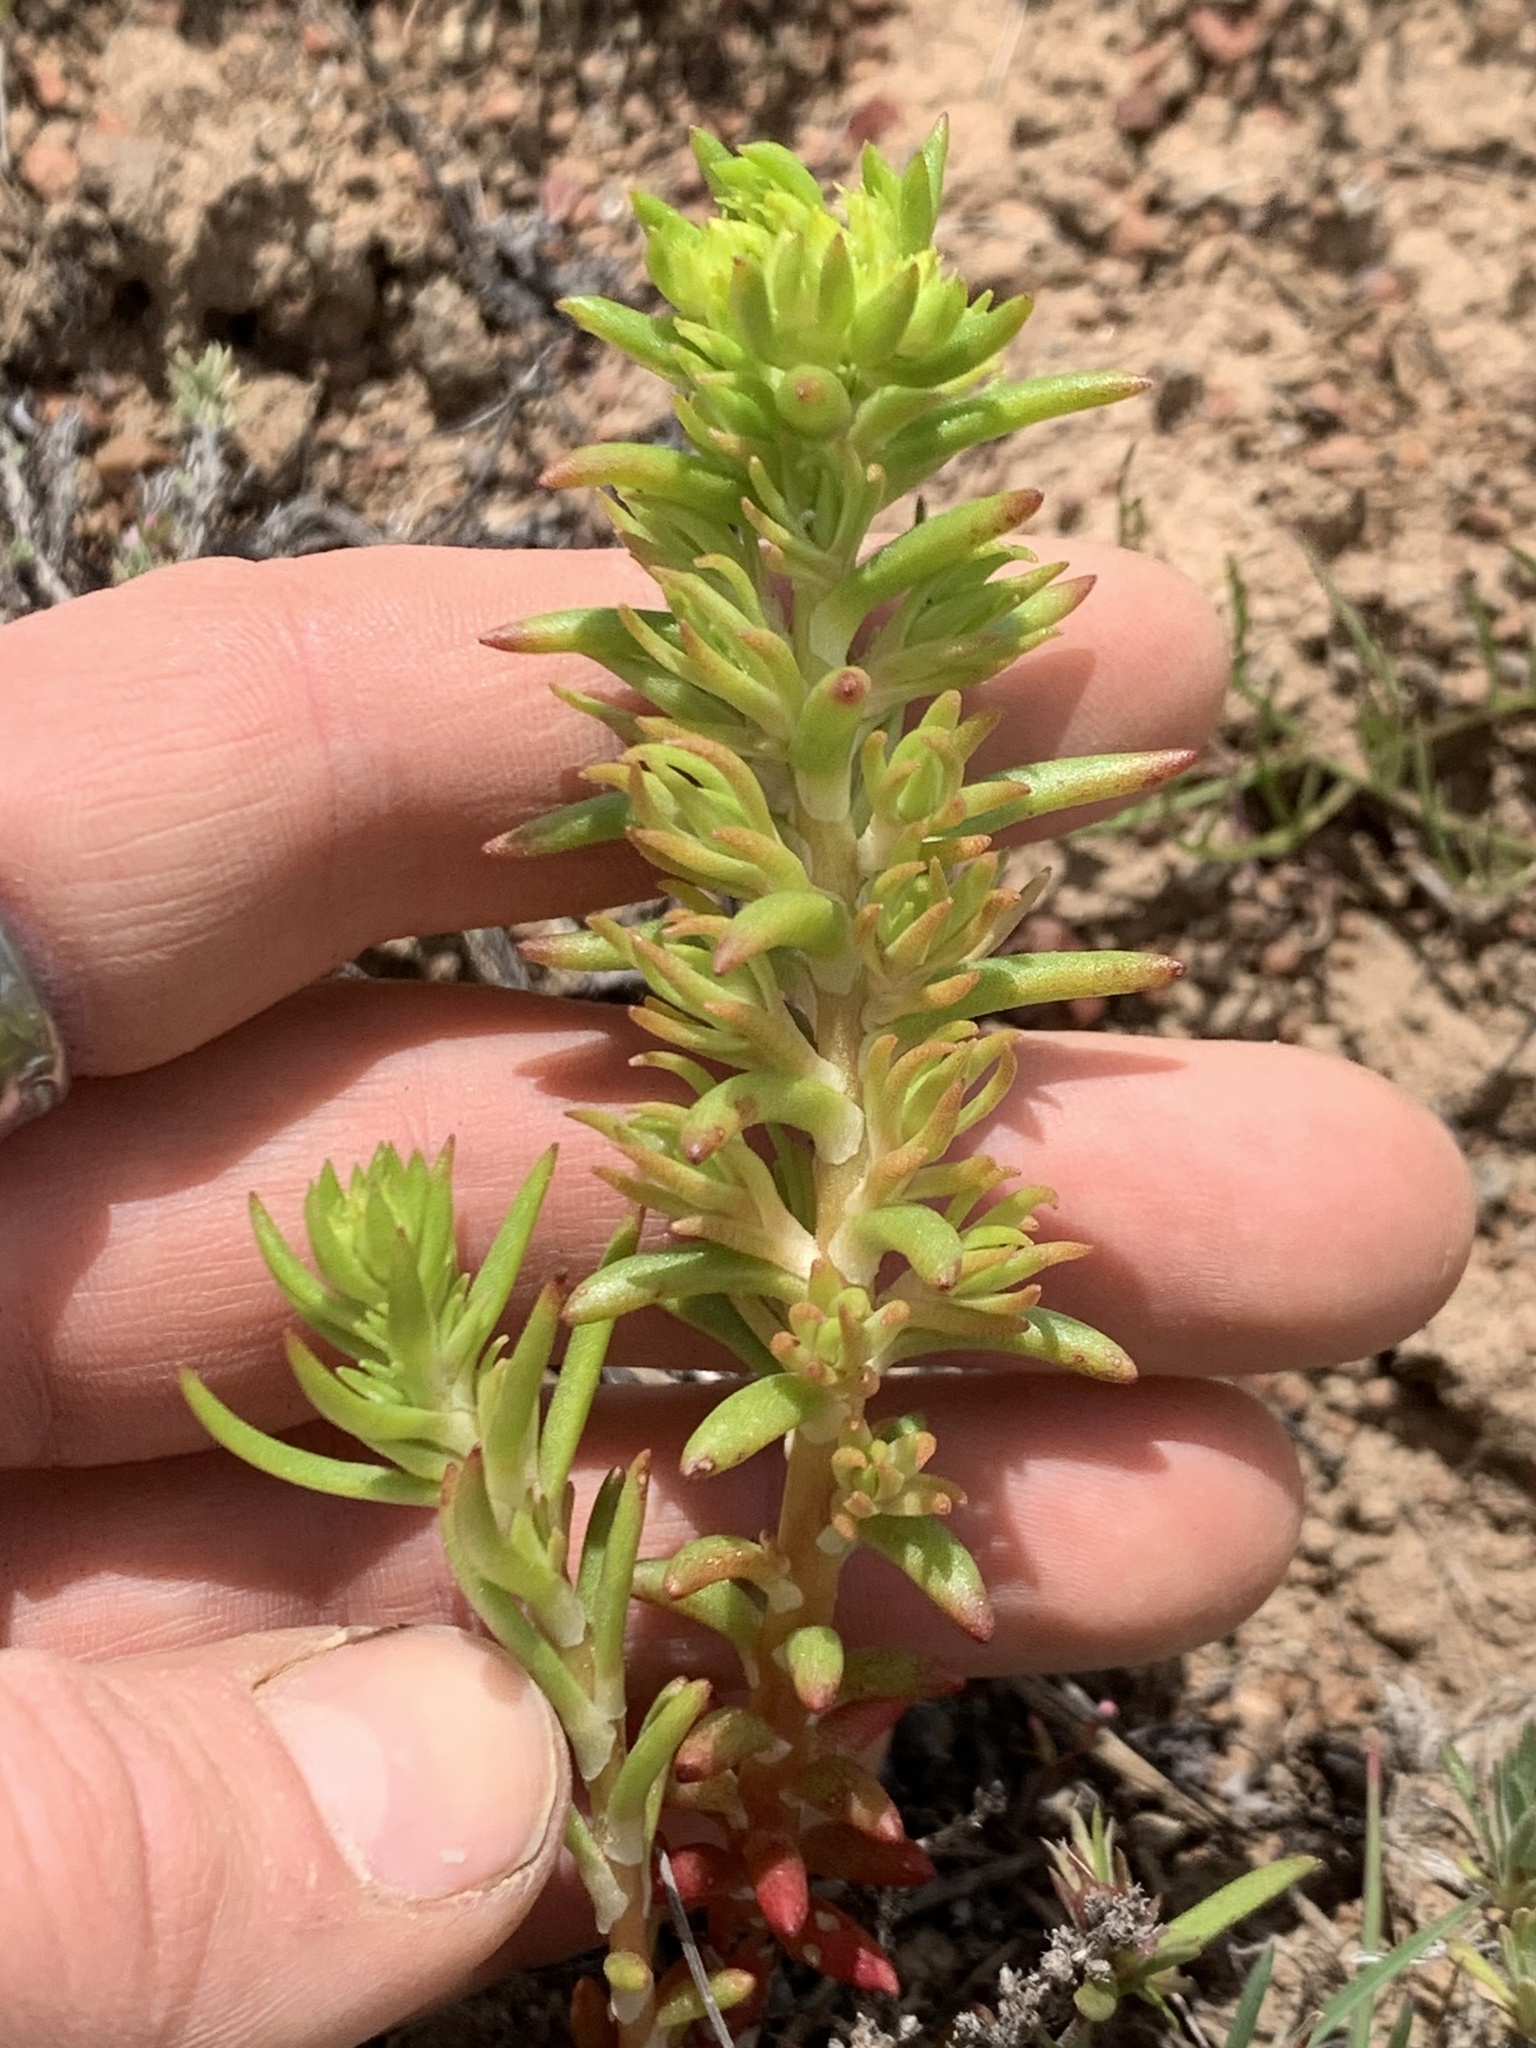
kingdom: Plantae
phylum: Tracheophyta
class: Magnoliopsida
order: Saxifragales
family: Crassulaceae
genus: Sedum
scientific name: Sedum stenopetalum
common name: Narrow-petaled stonecrop
